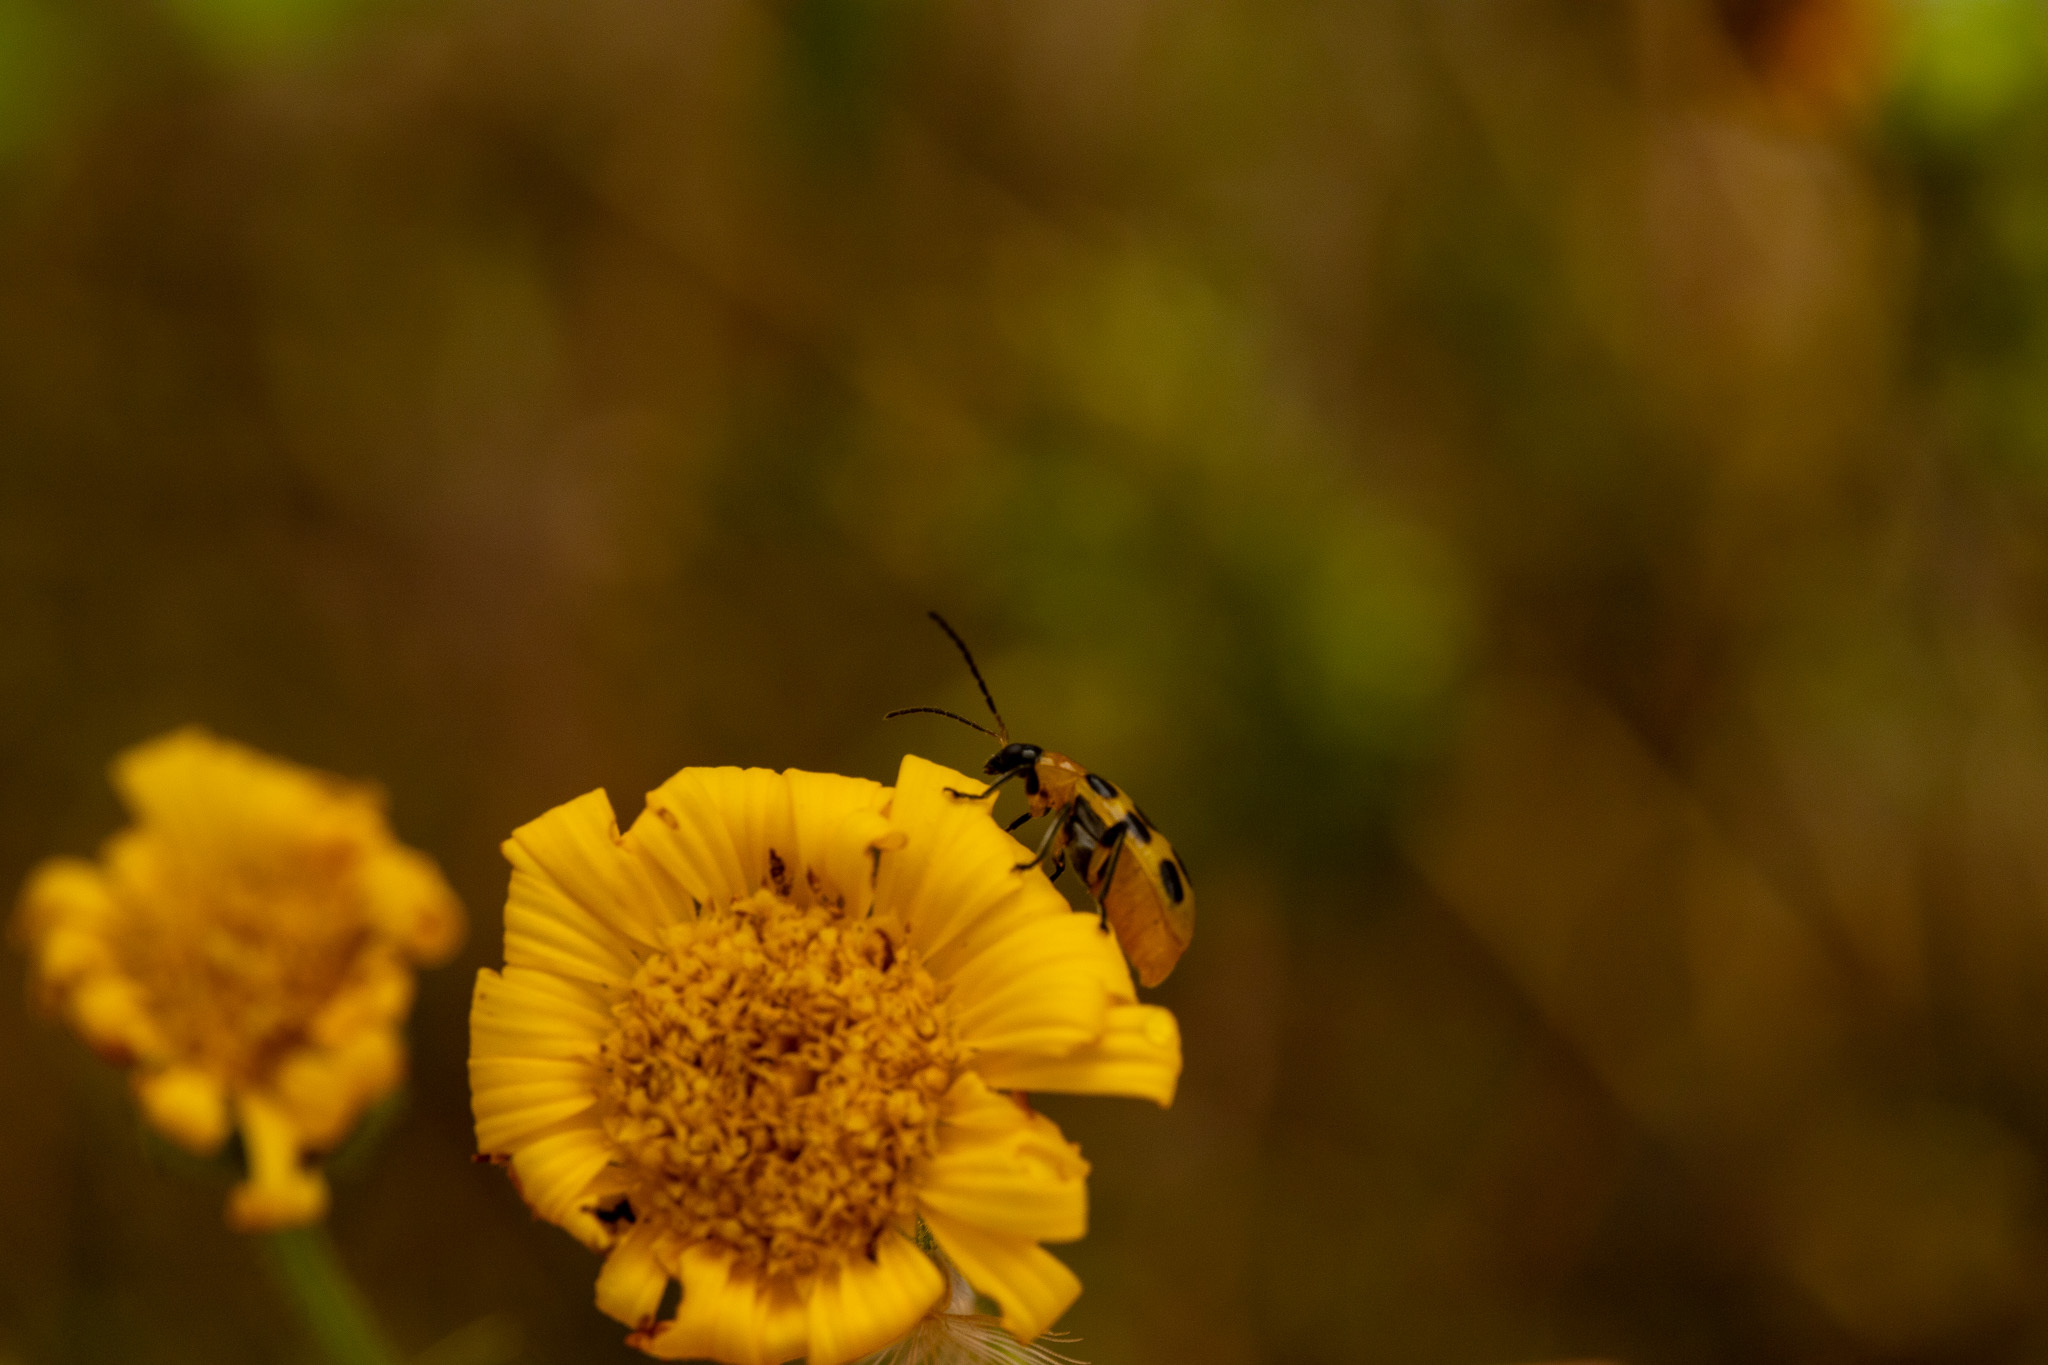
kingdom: Animalia
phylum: Arthropoda
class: Insecta
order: Coleoptera
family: Chrysomelidae
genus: Diabrotica
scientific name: Diabrotica undecimpunctata
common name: Spotted cucumber beetle
